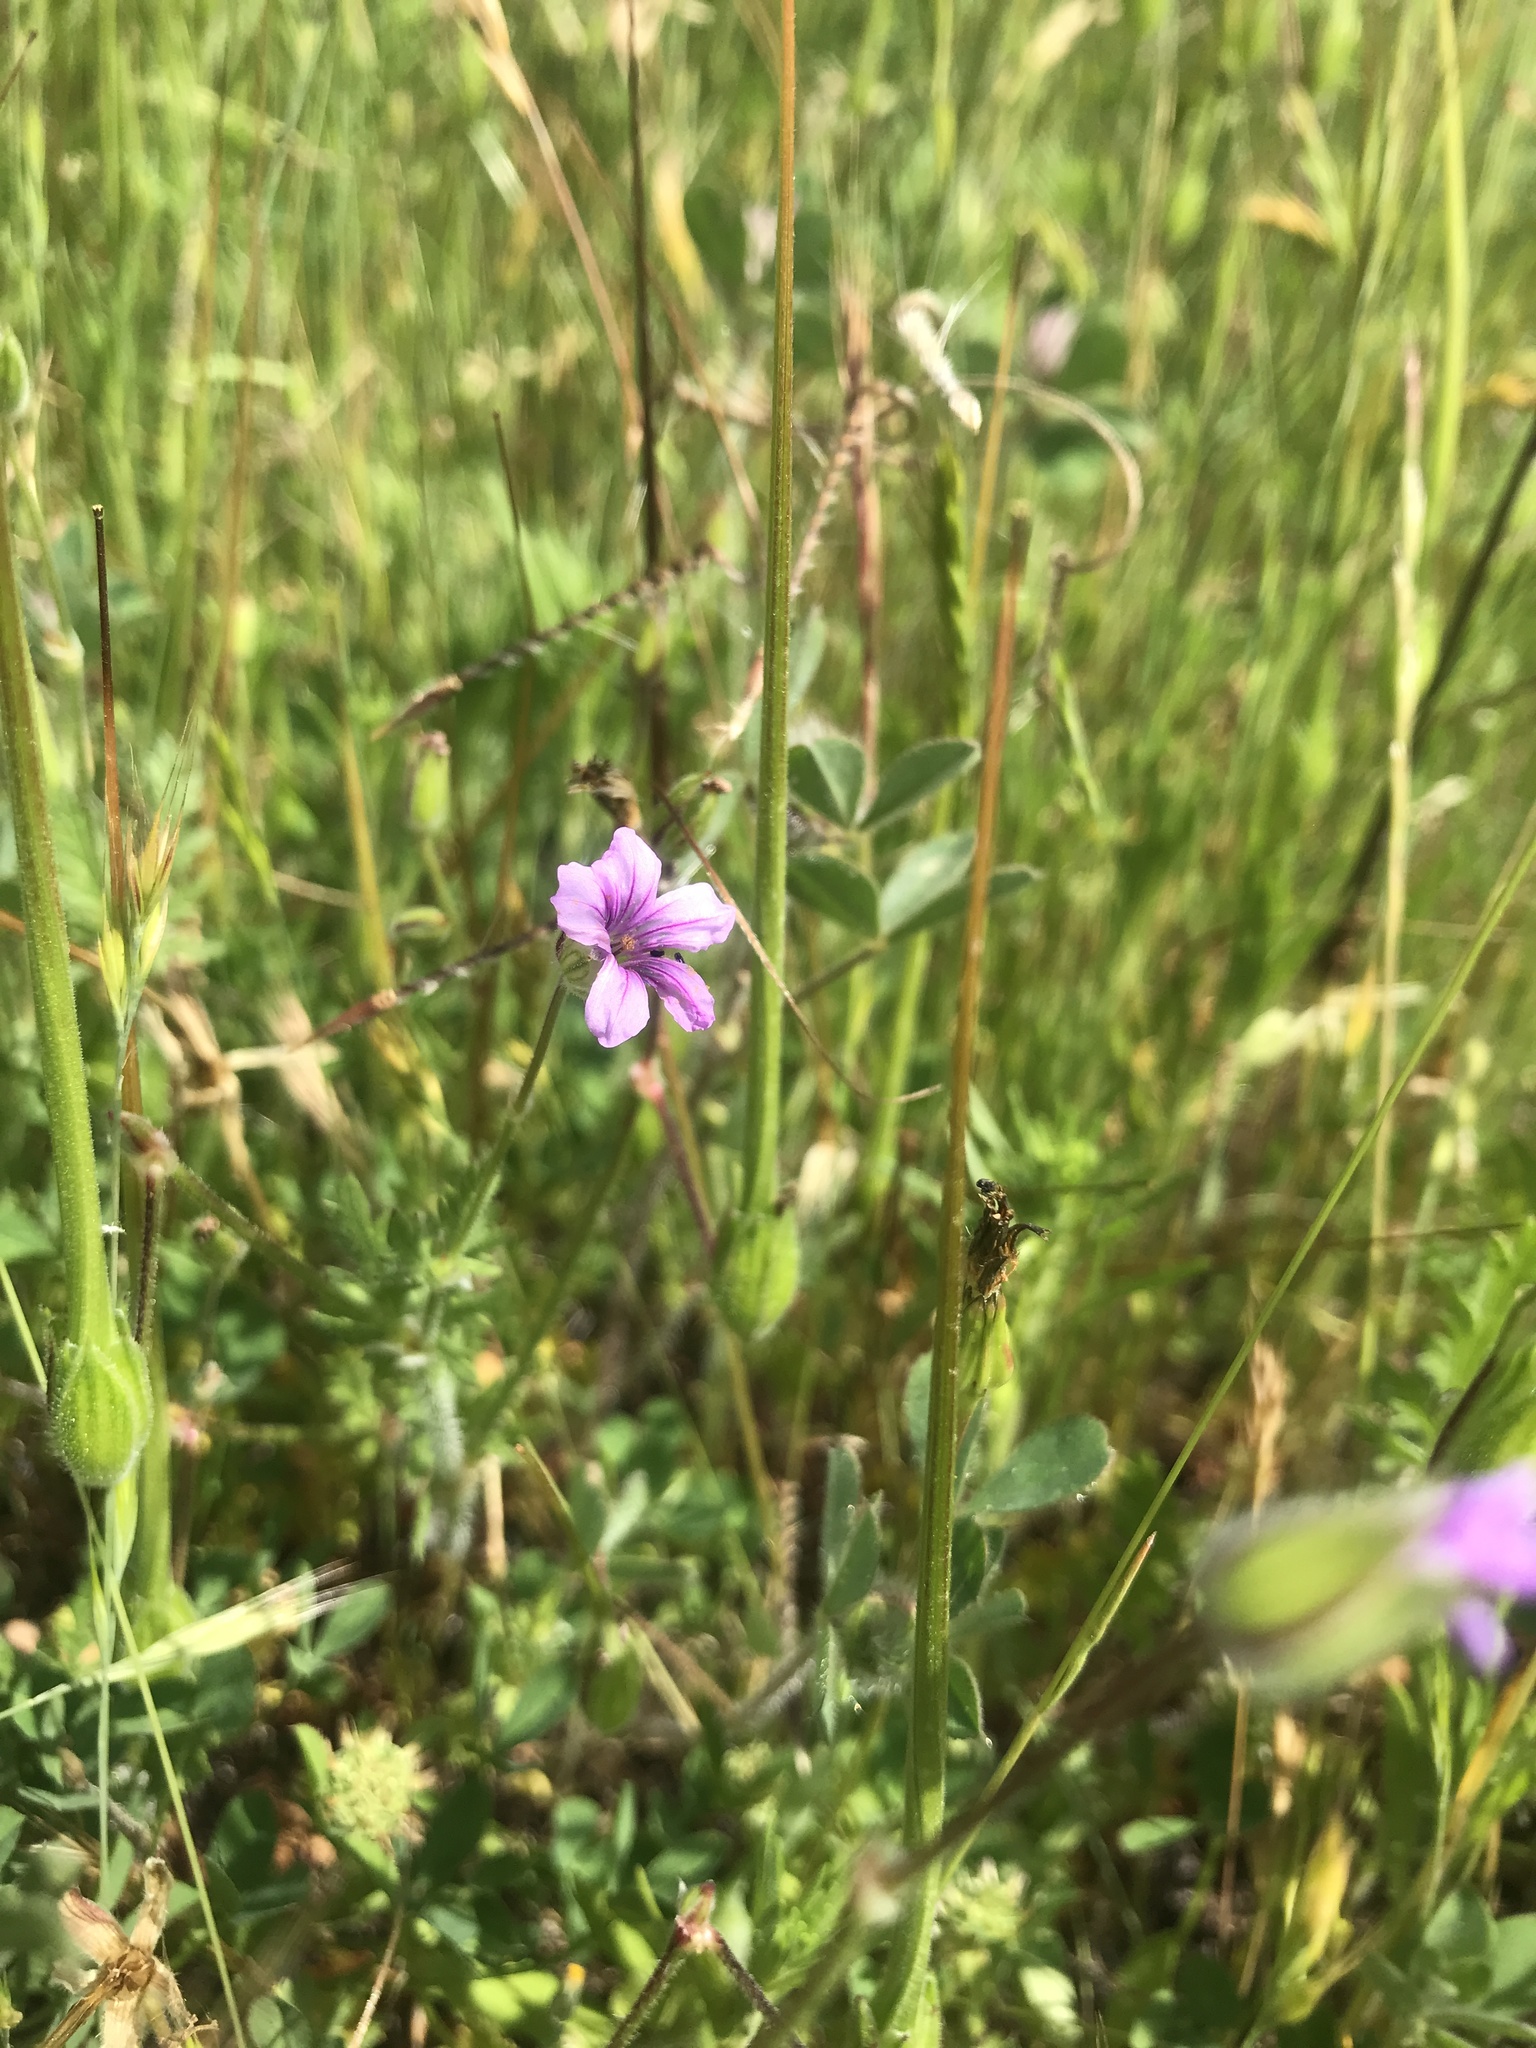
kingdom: Plantae
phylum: Tracheophyta
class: Magnoliopsida
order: Geraniales
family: Geraniaceae
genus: Erodium
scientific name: Erodium botrys
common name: Mediterranean stork's-bill
